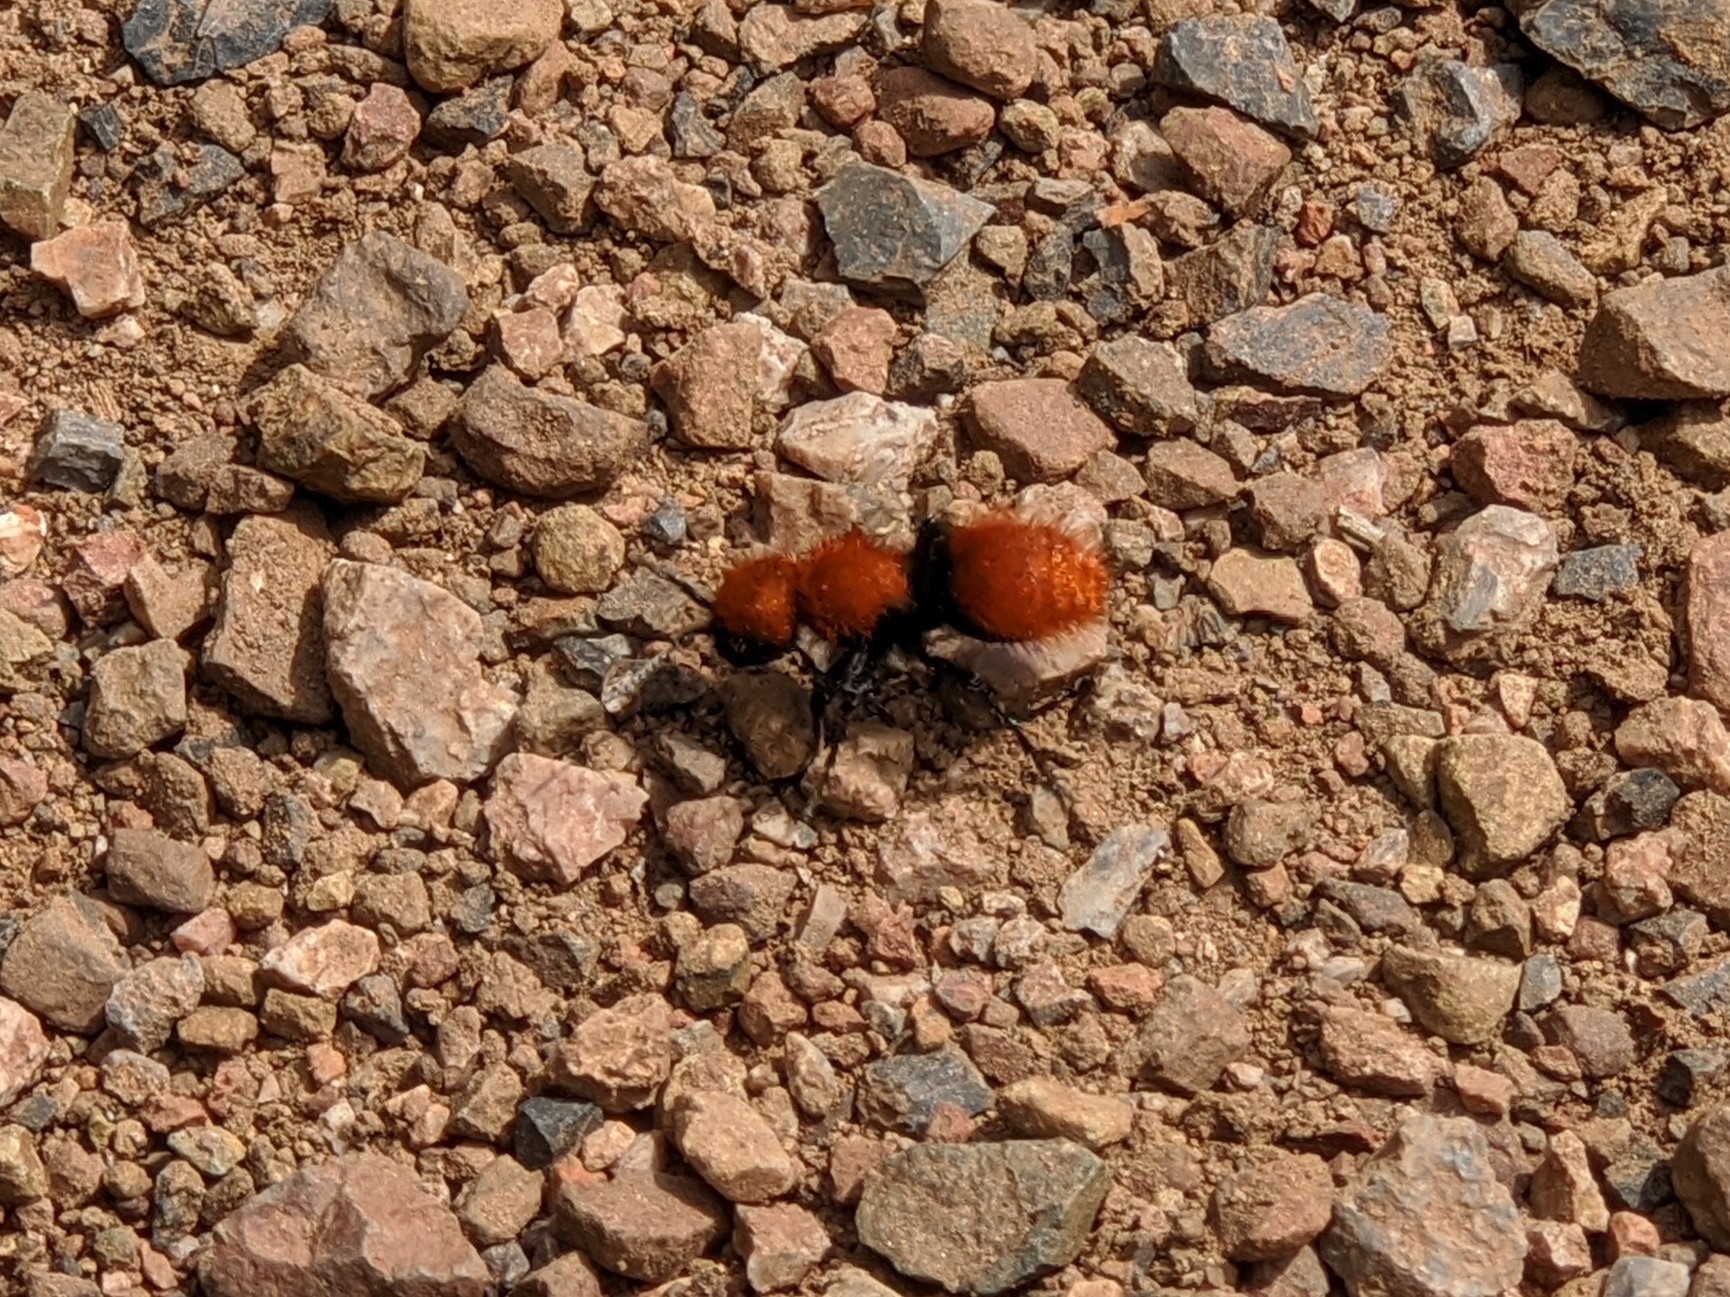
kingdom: Animalia
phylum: Arthropoda
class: Insecta
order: Hymenoptera
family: Mutillidae
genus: Dasymutilla
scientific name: Dasymutilla
